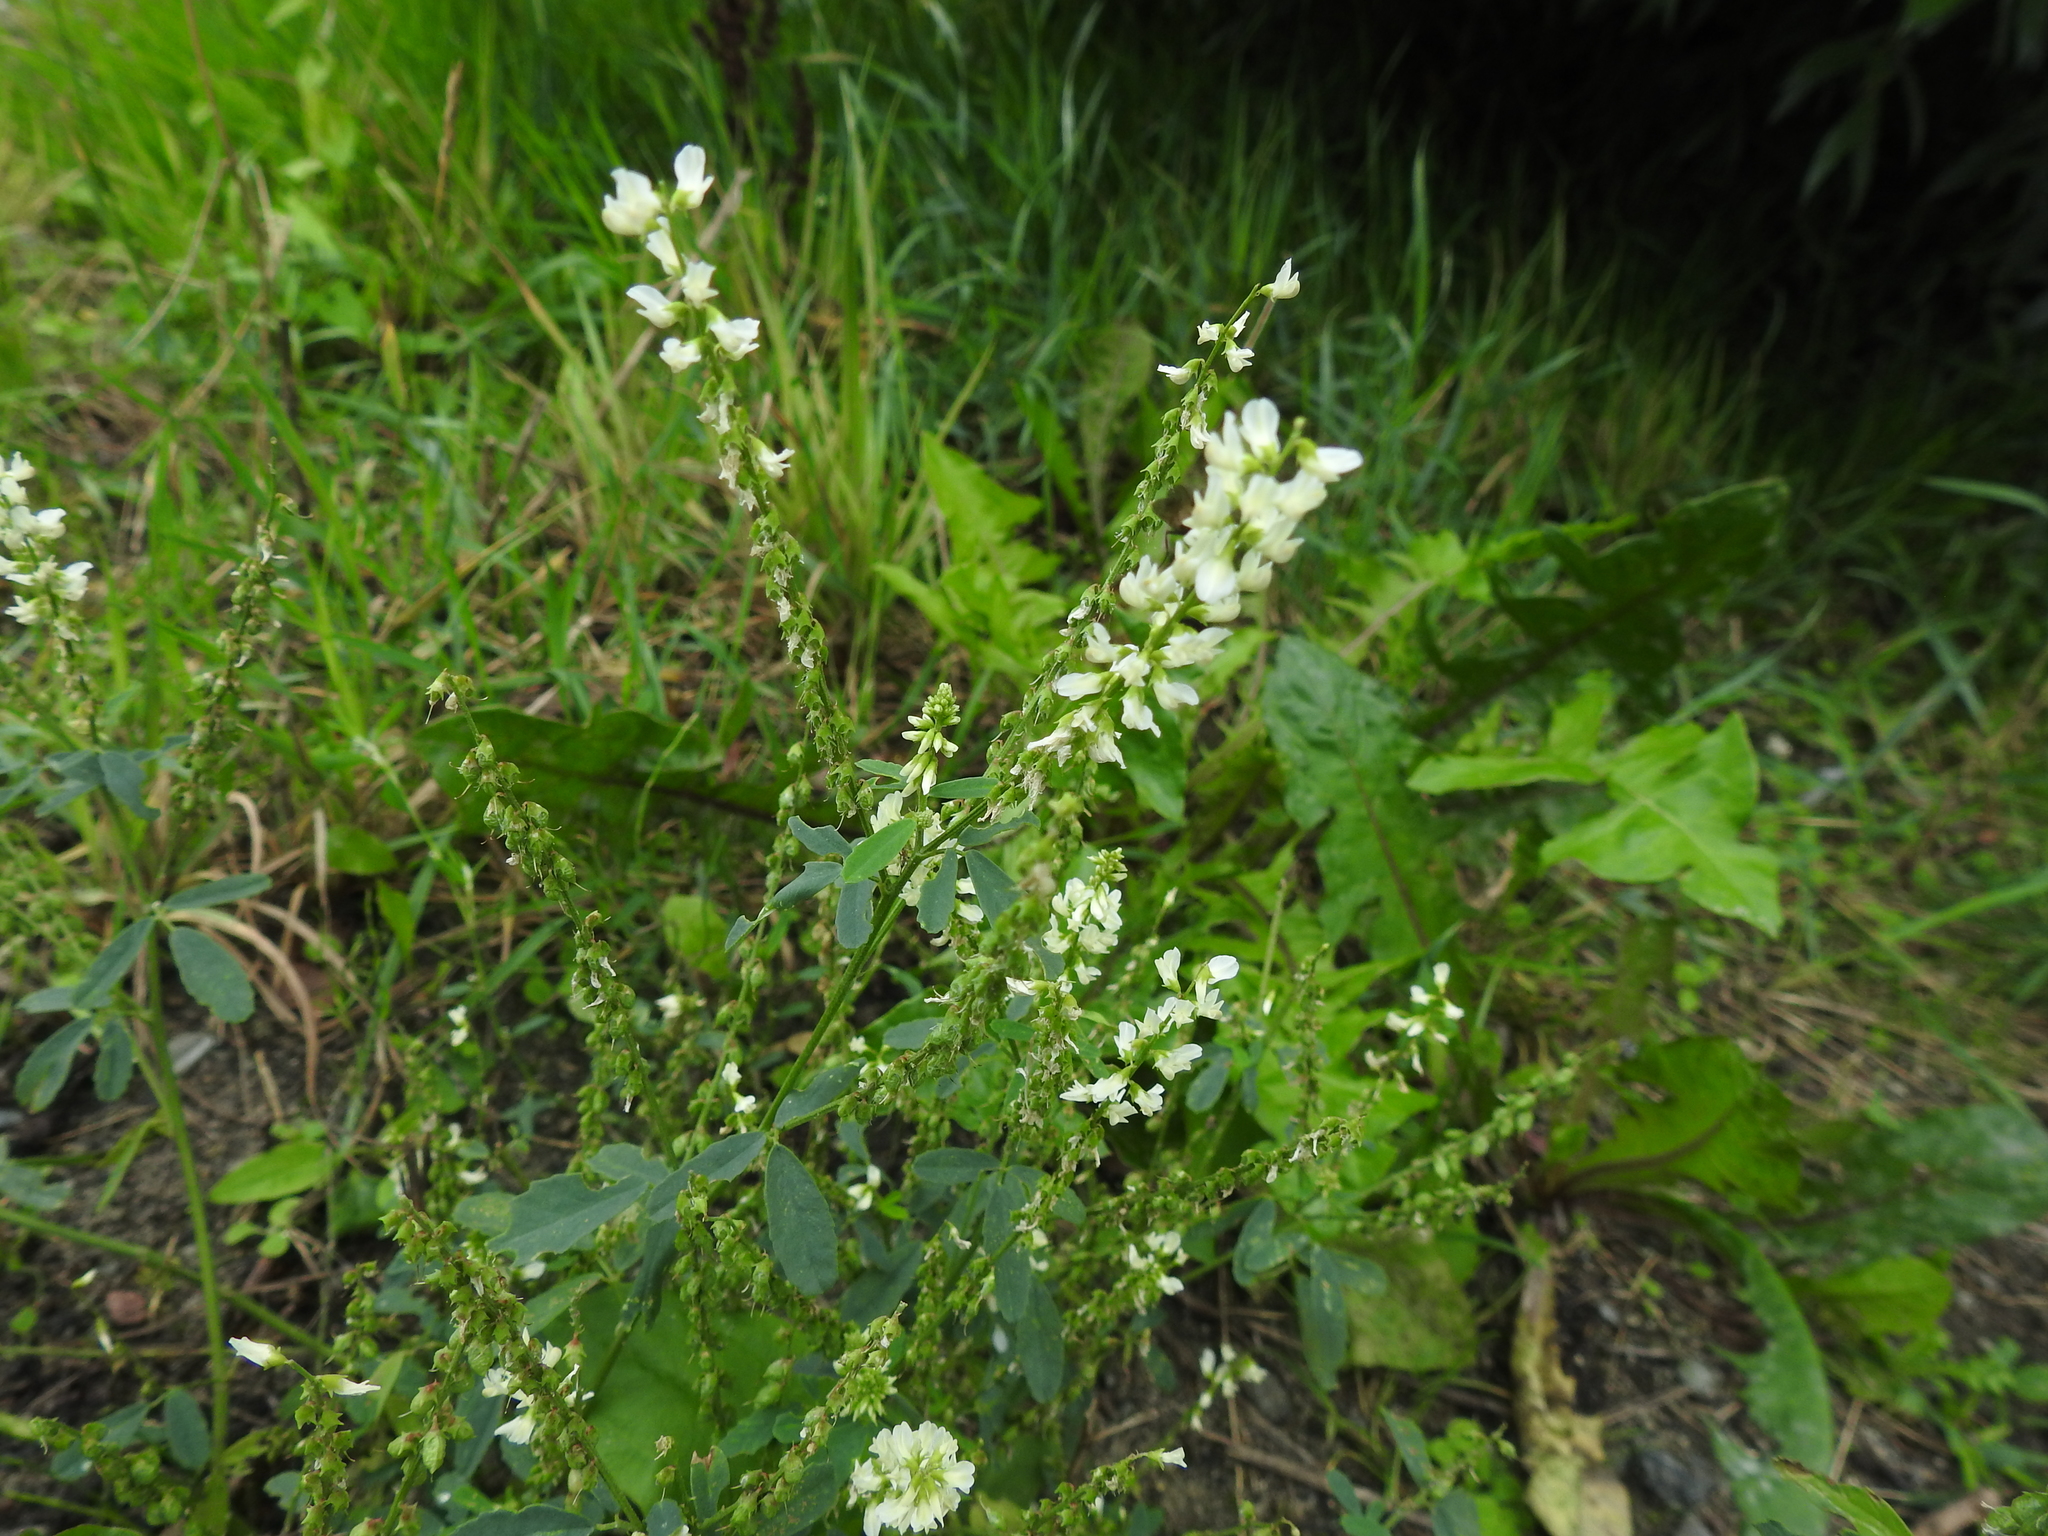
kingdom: Plantae
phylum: Tracheophyta
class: Magnoliopsida
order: Fabales
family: Fabaceae
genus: Melilotus
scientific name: Melilotus albus
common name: White melilot
